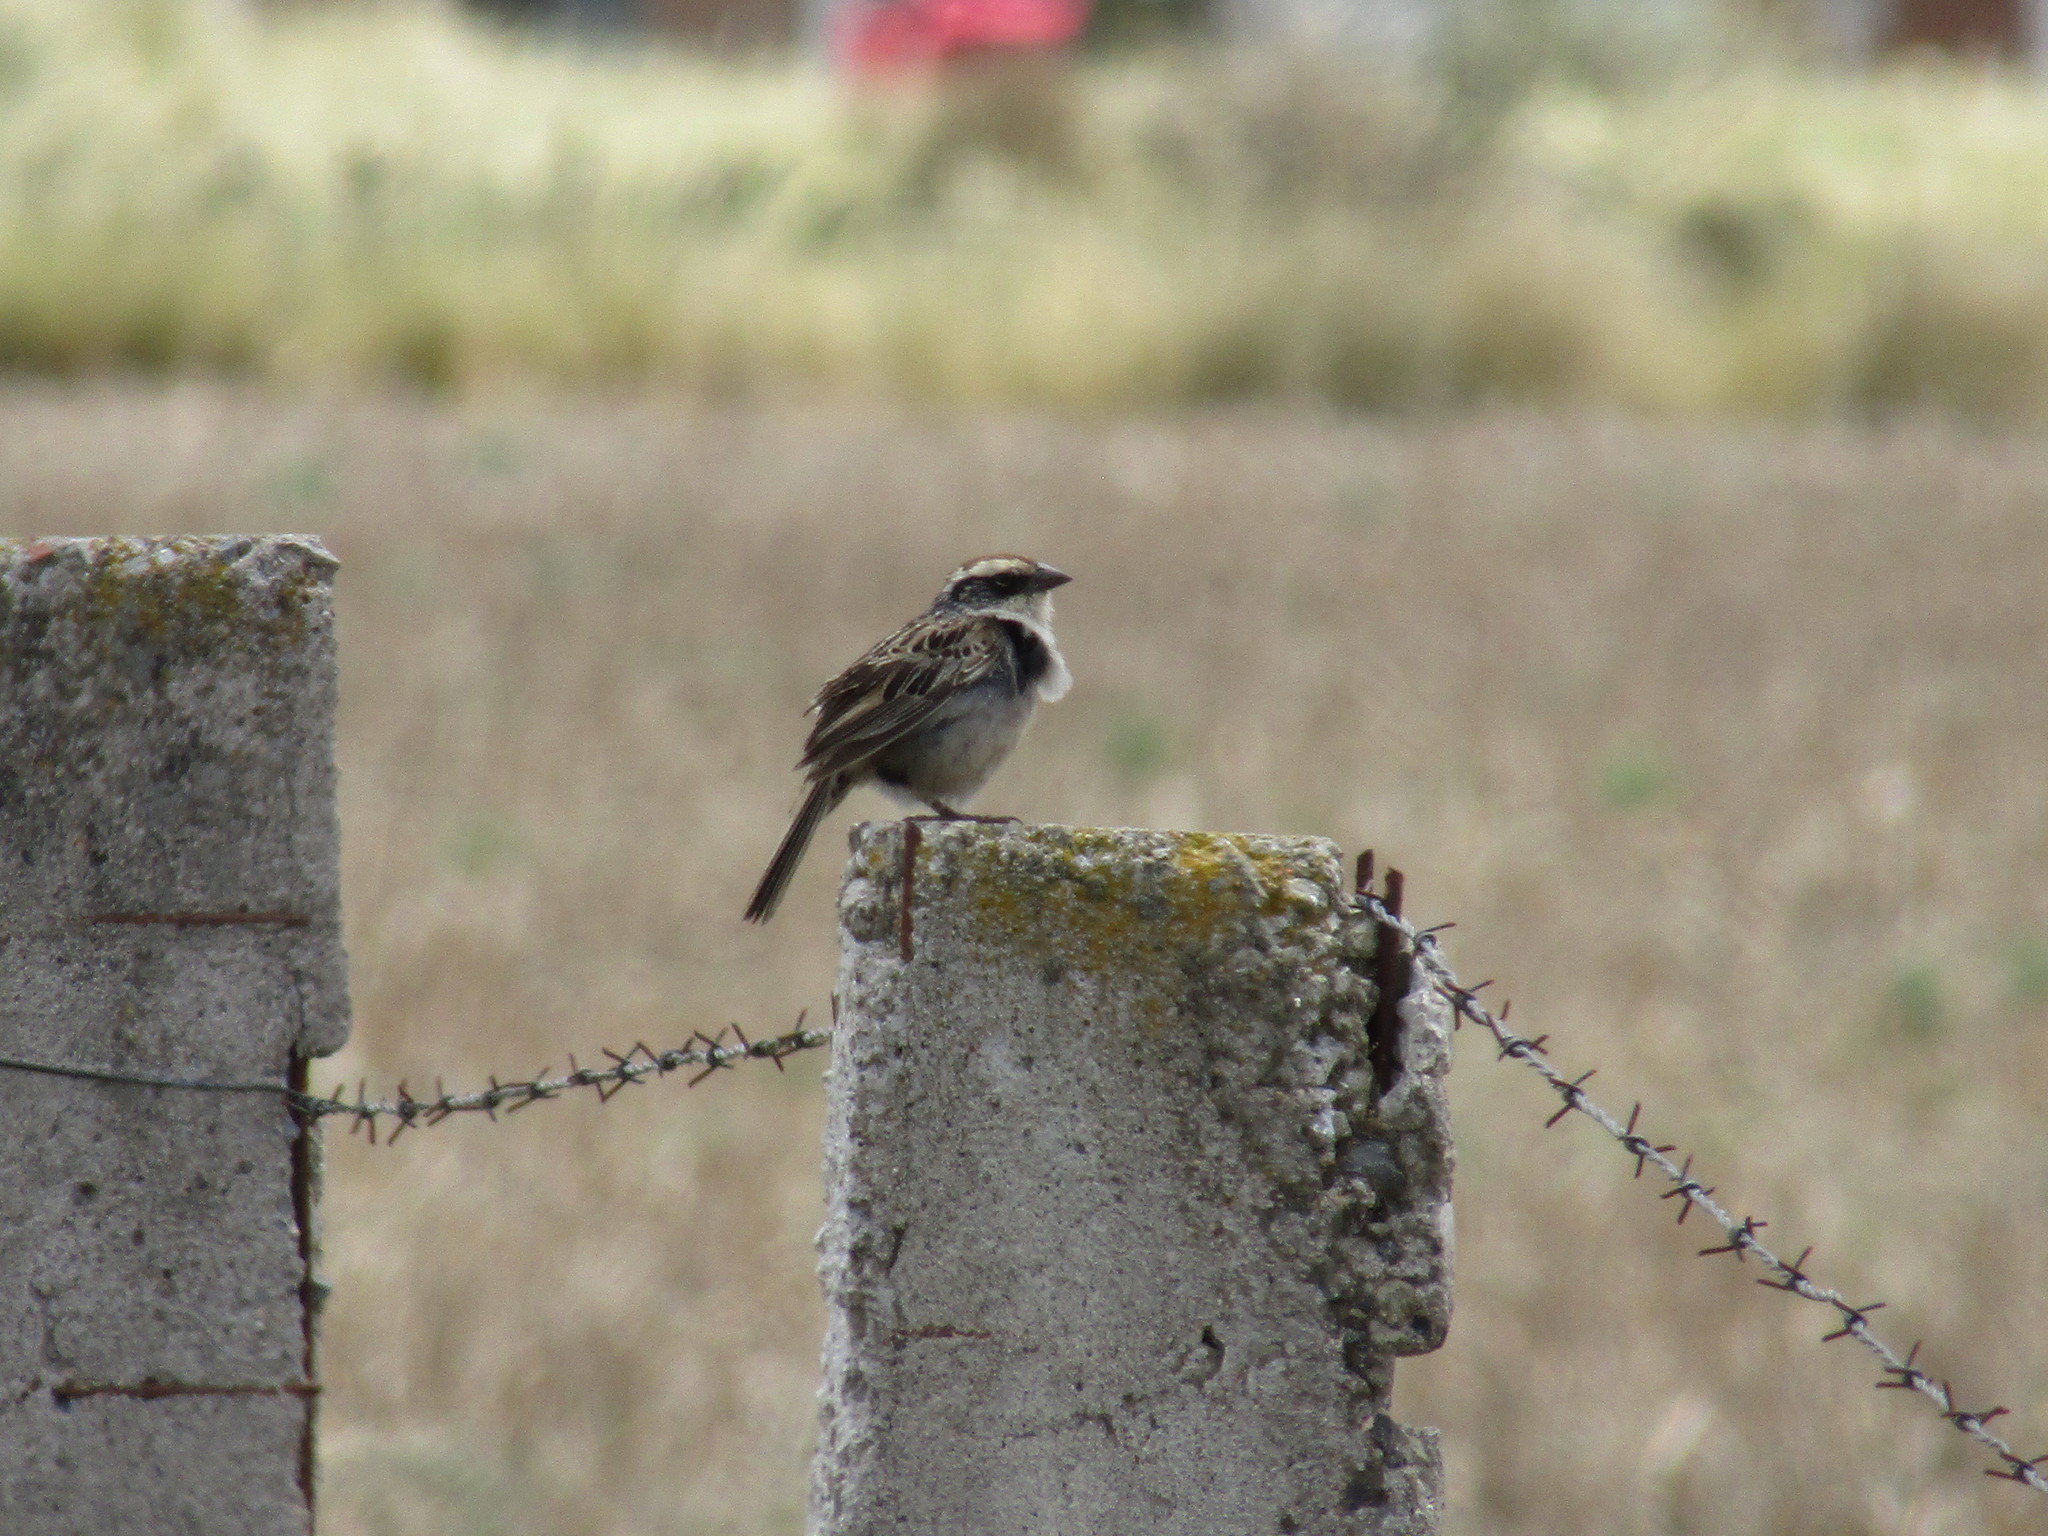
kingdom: Animalia
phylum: Chordata
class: Aves
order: Passeriformes
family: Passerellidae
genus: Oriturus
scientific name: Oriturus superciliosus
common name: Striped sparrow
